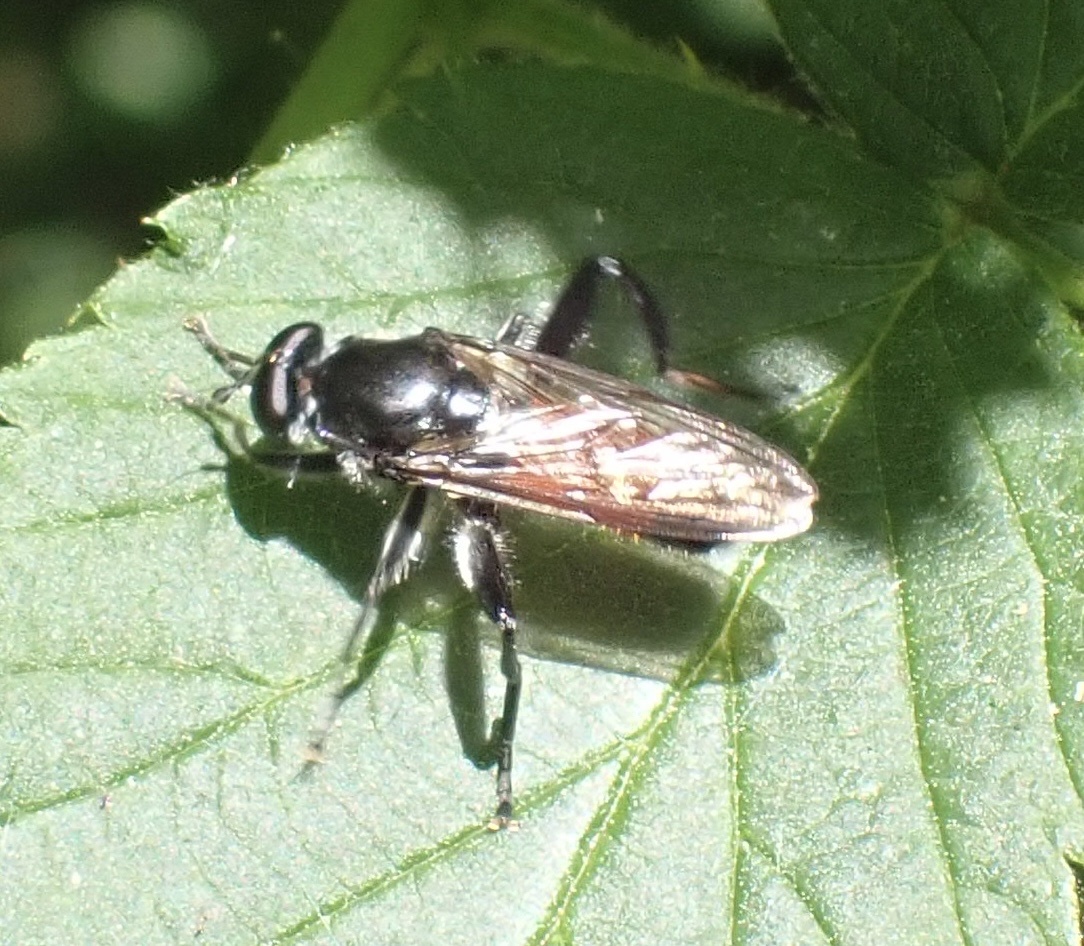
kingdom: Animalia
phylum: Arthropoda
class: Insecta
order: Diptera
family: Syrphidae
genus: Brachypalpoides
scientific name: Brachypalpoides lenta
